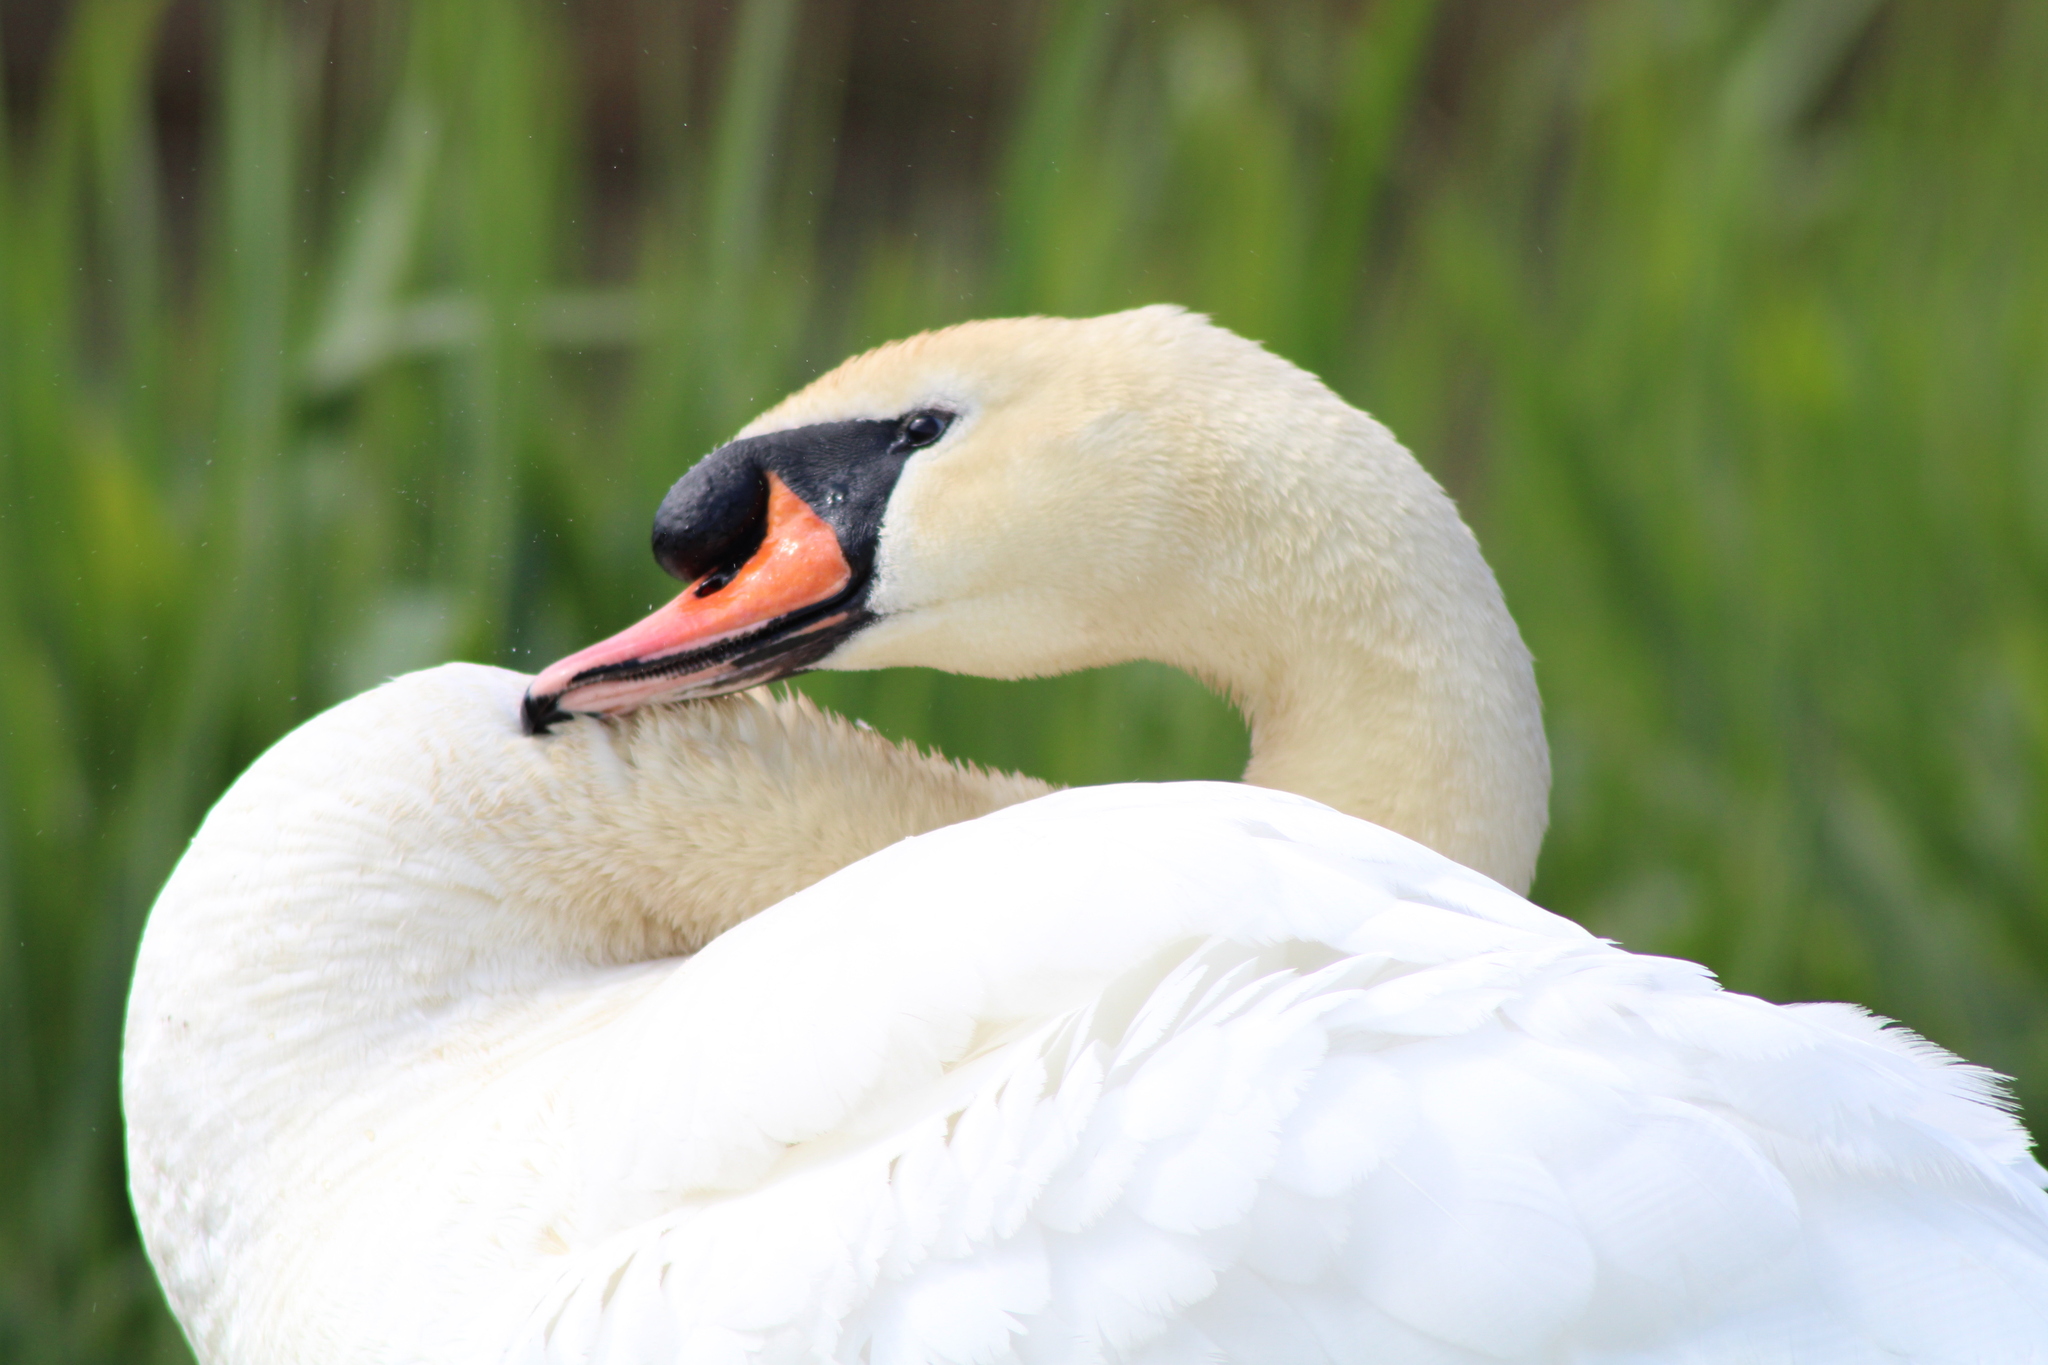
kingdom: Animalia
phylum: Chordata
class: Aves
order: Anseriformes
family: Anatidae
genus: Cygnus
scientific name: Cygnus olor
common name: Mute swan
